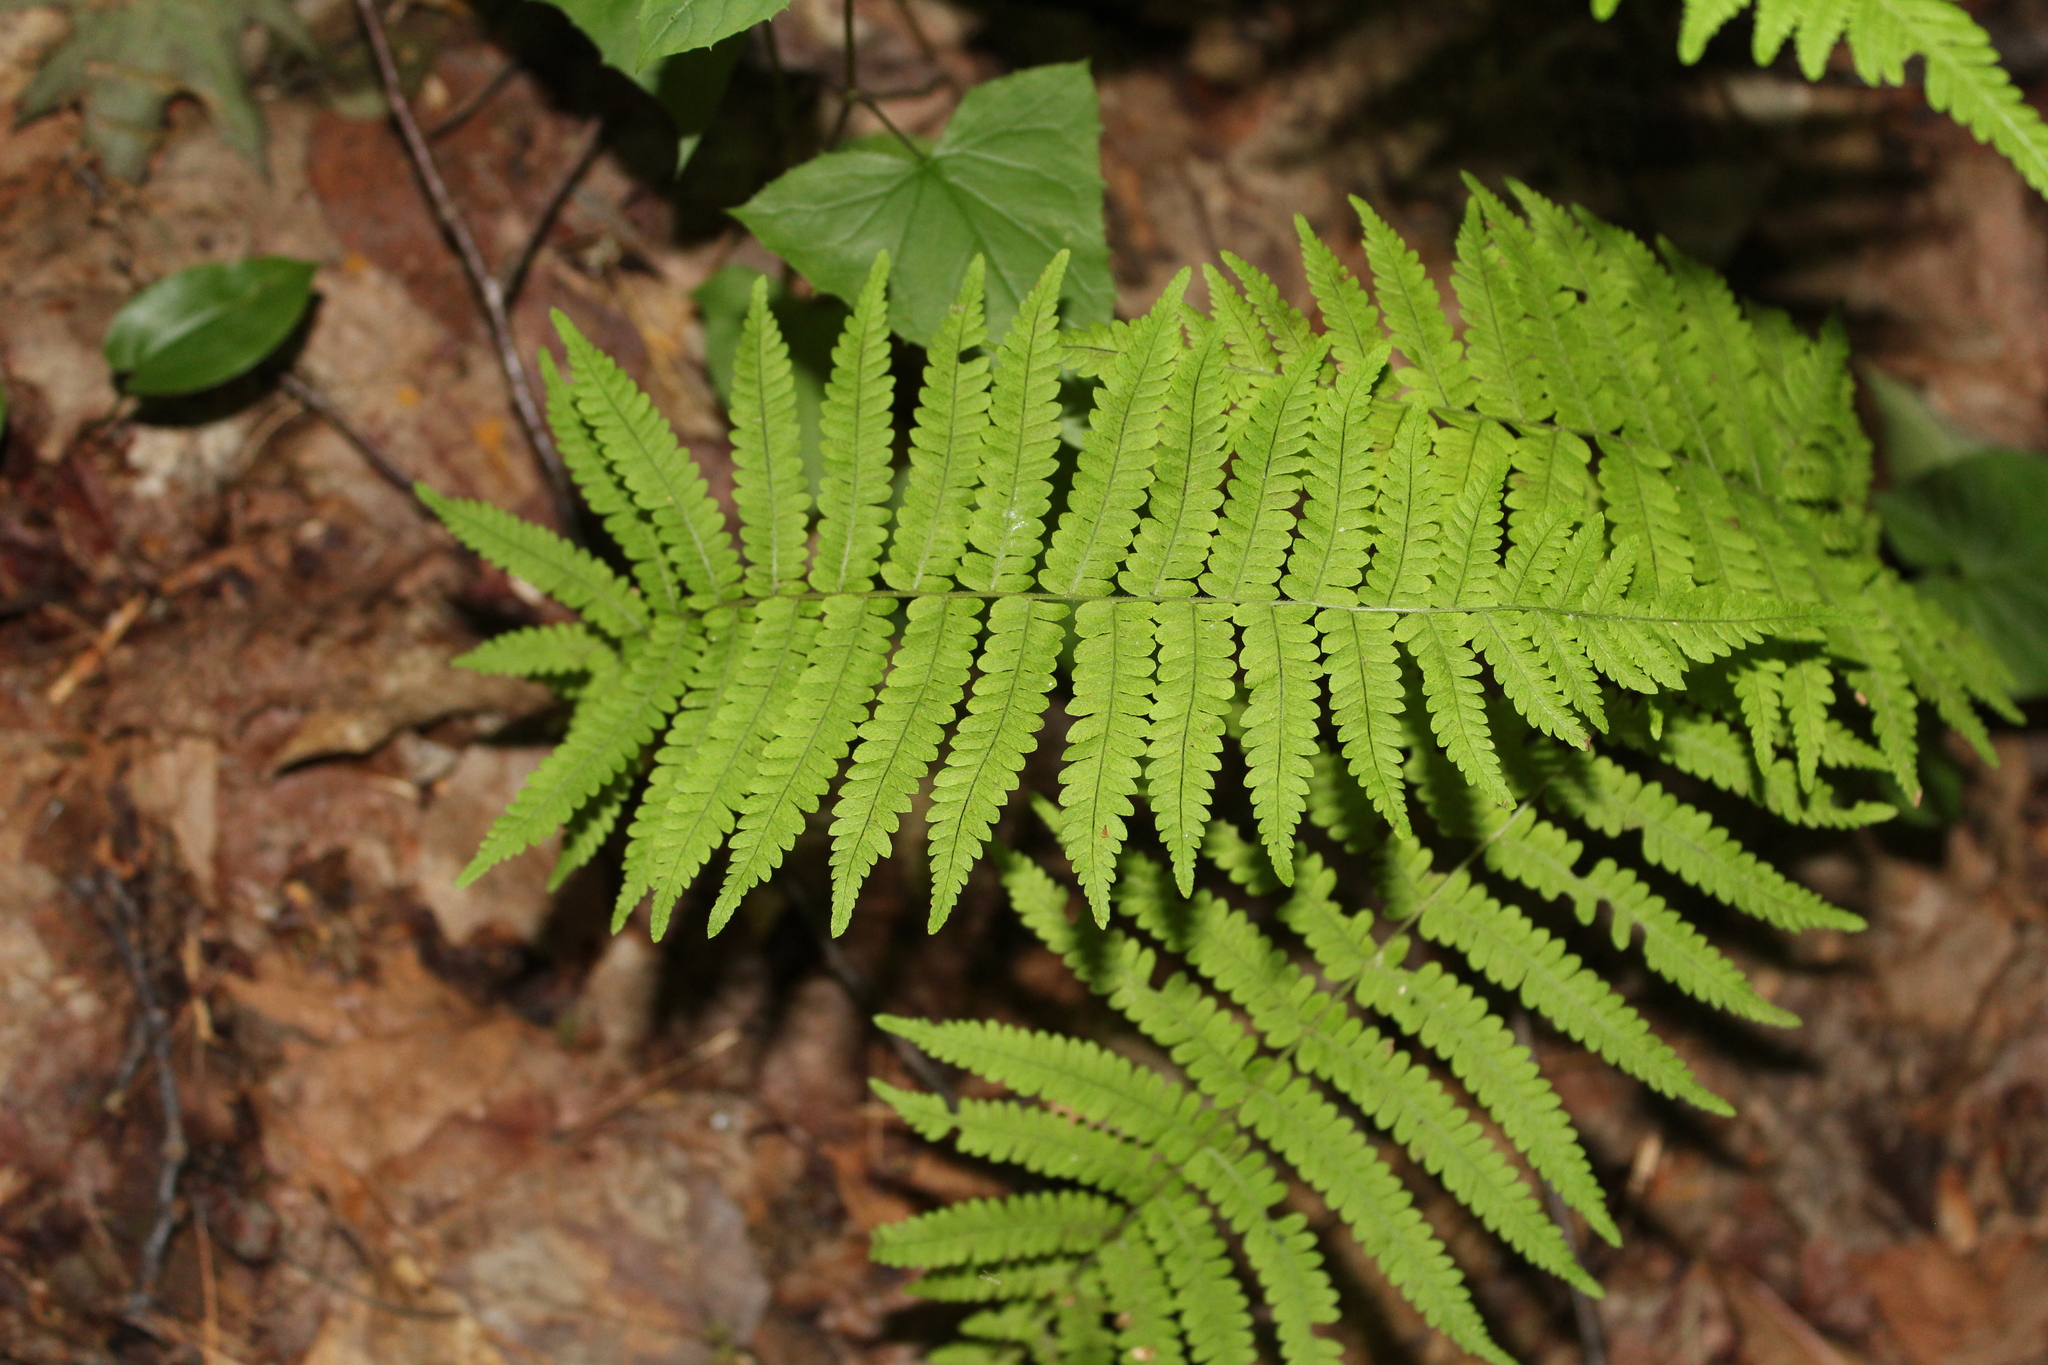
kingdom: Plantae
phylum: Tracheophyta
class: Polypodiopsida
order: Polypodiales
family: Thelypteridaceae
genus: Amauropelta
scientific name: Amauropelta noveboracensis
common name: New york fern
